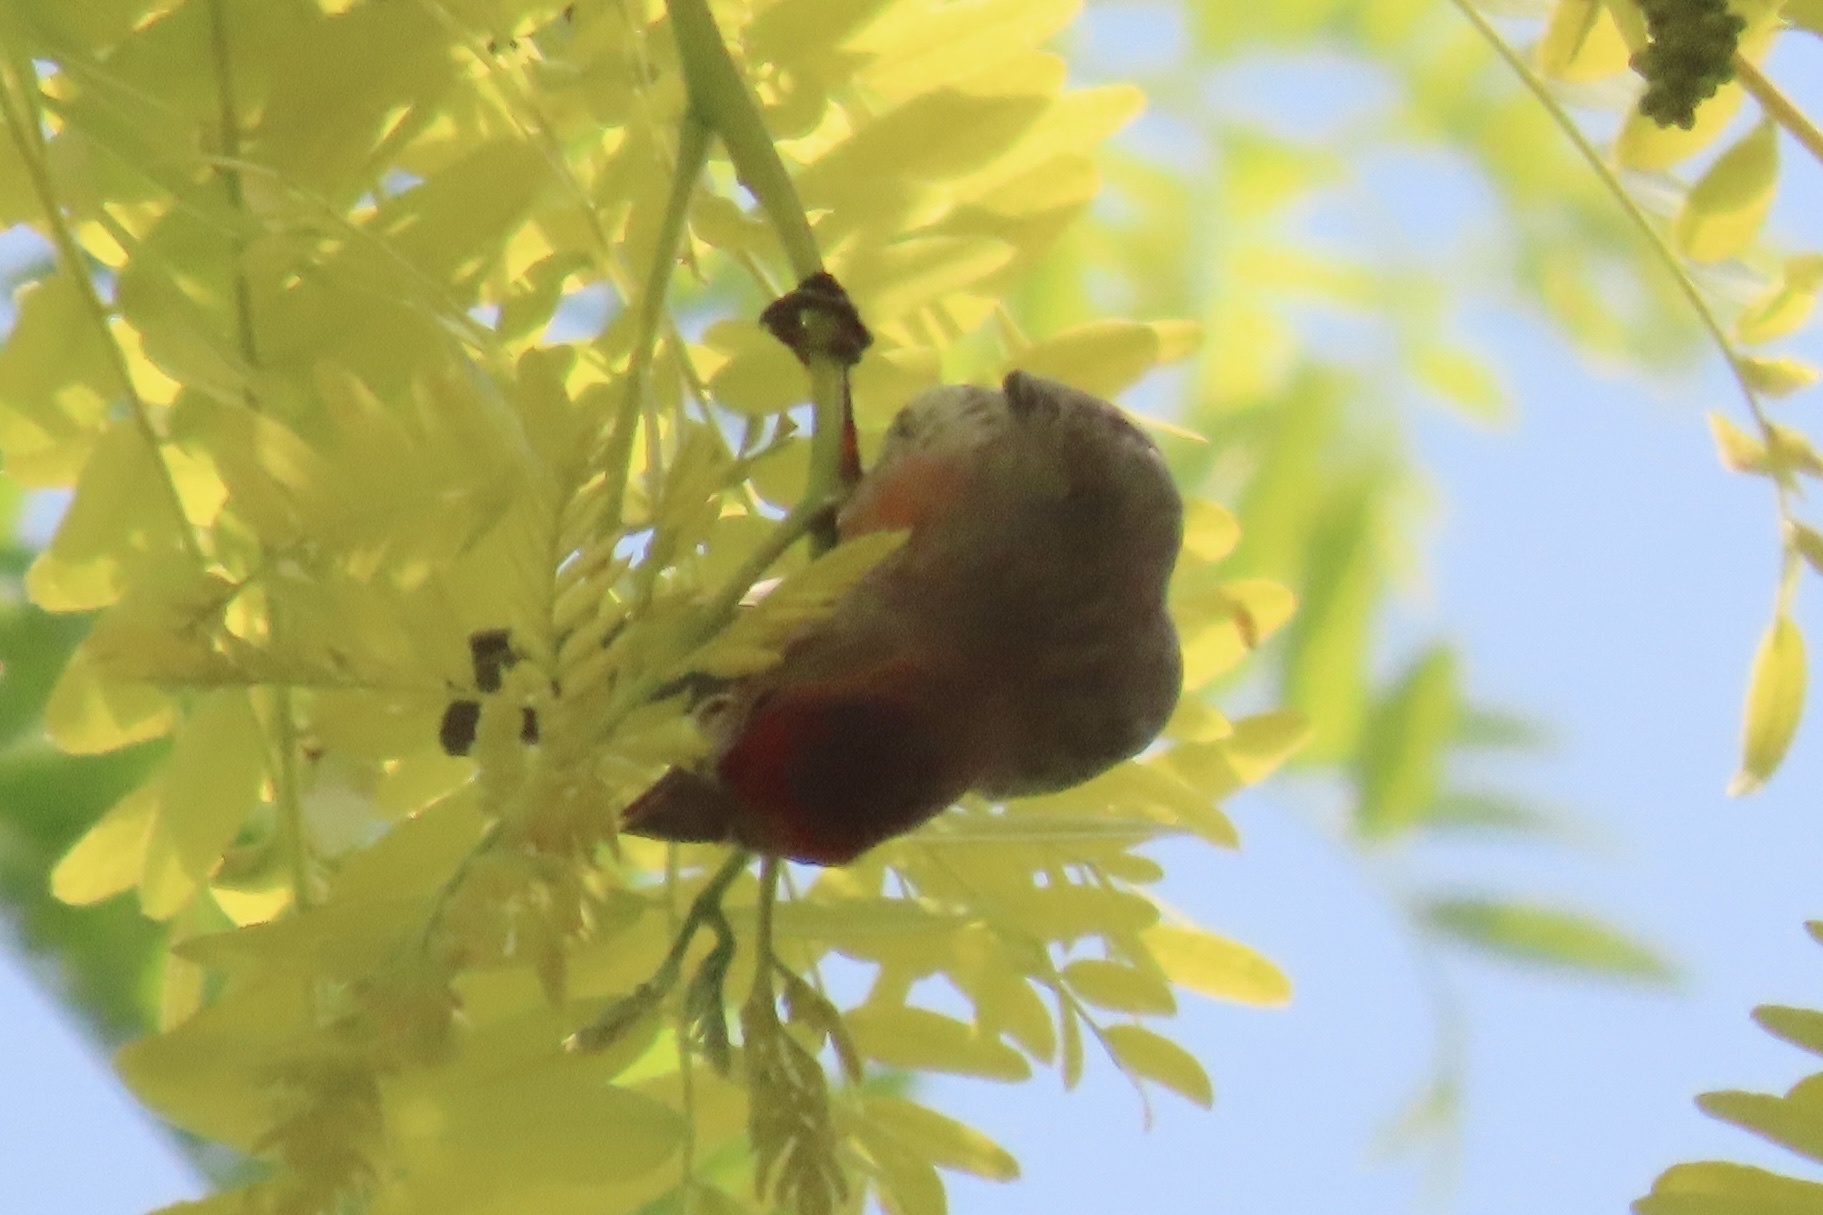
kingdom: Animalia
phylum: Chordata
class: Aves
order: Passeriformes
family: Fringillidae
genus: Haemorhous
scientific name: Haemorhous mexicanus
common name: House finch
